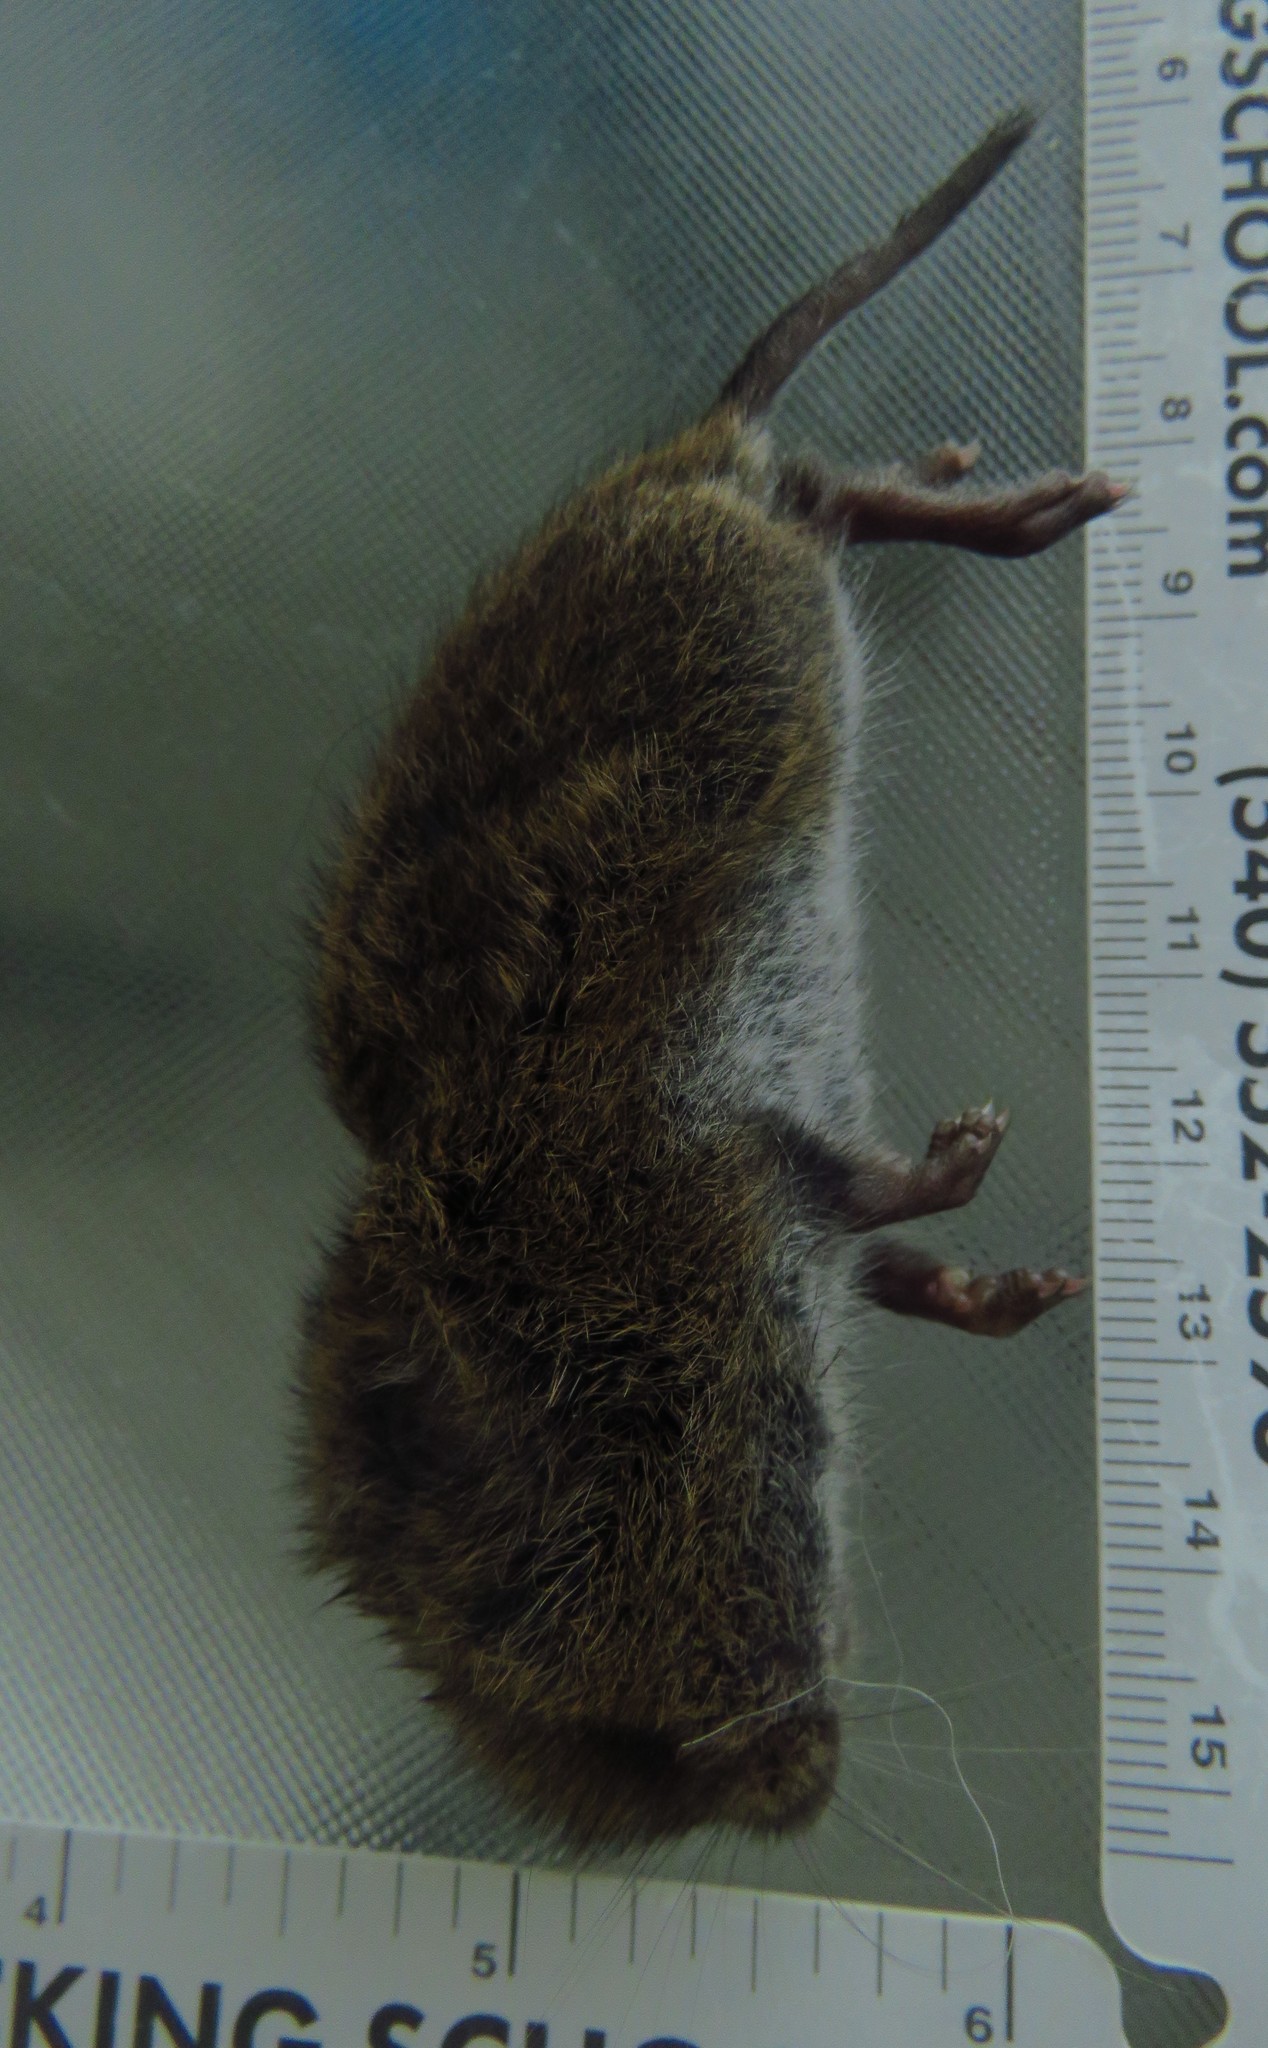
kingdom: Animalia
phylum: Chordata
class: Mammalia
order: Rodentia
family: Cricetidae
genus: Microtus
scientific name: Microtus pennsylvanicus
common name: Meadow vole
